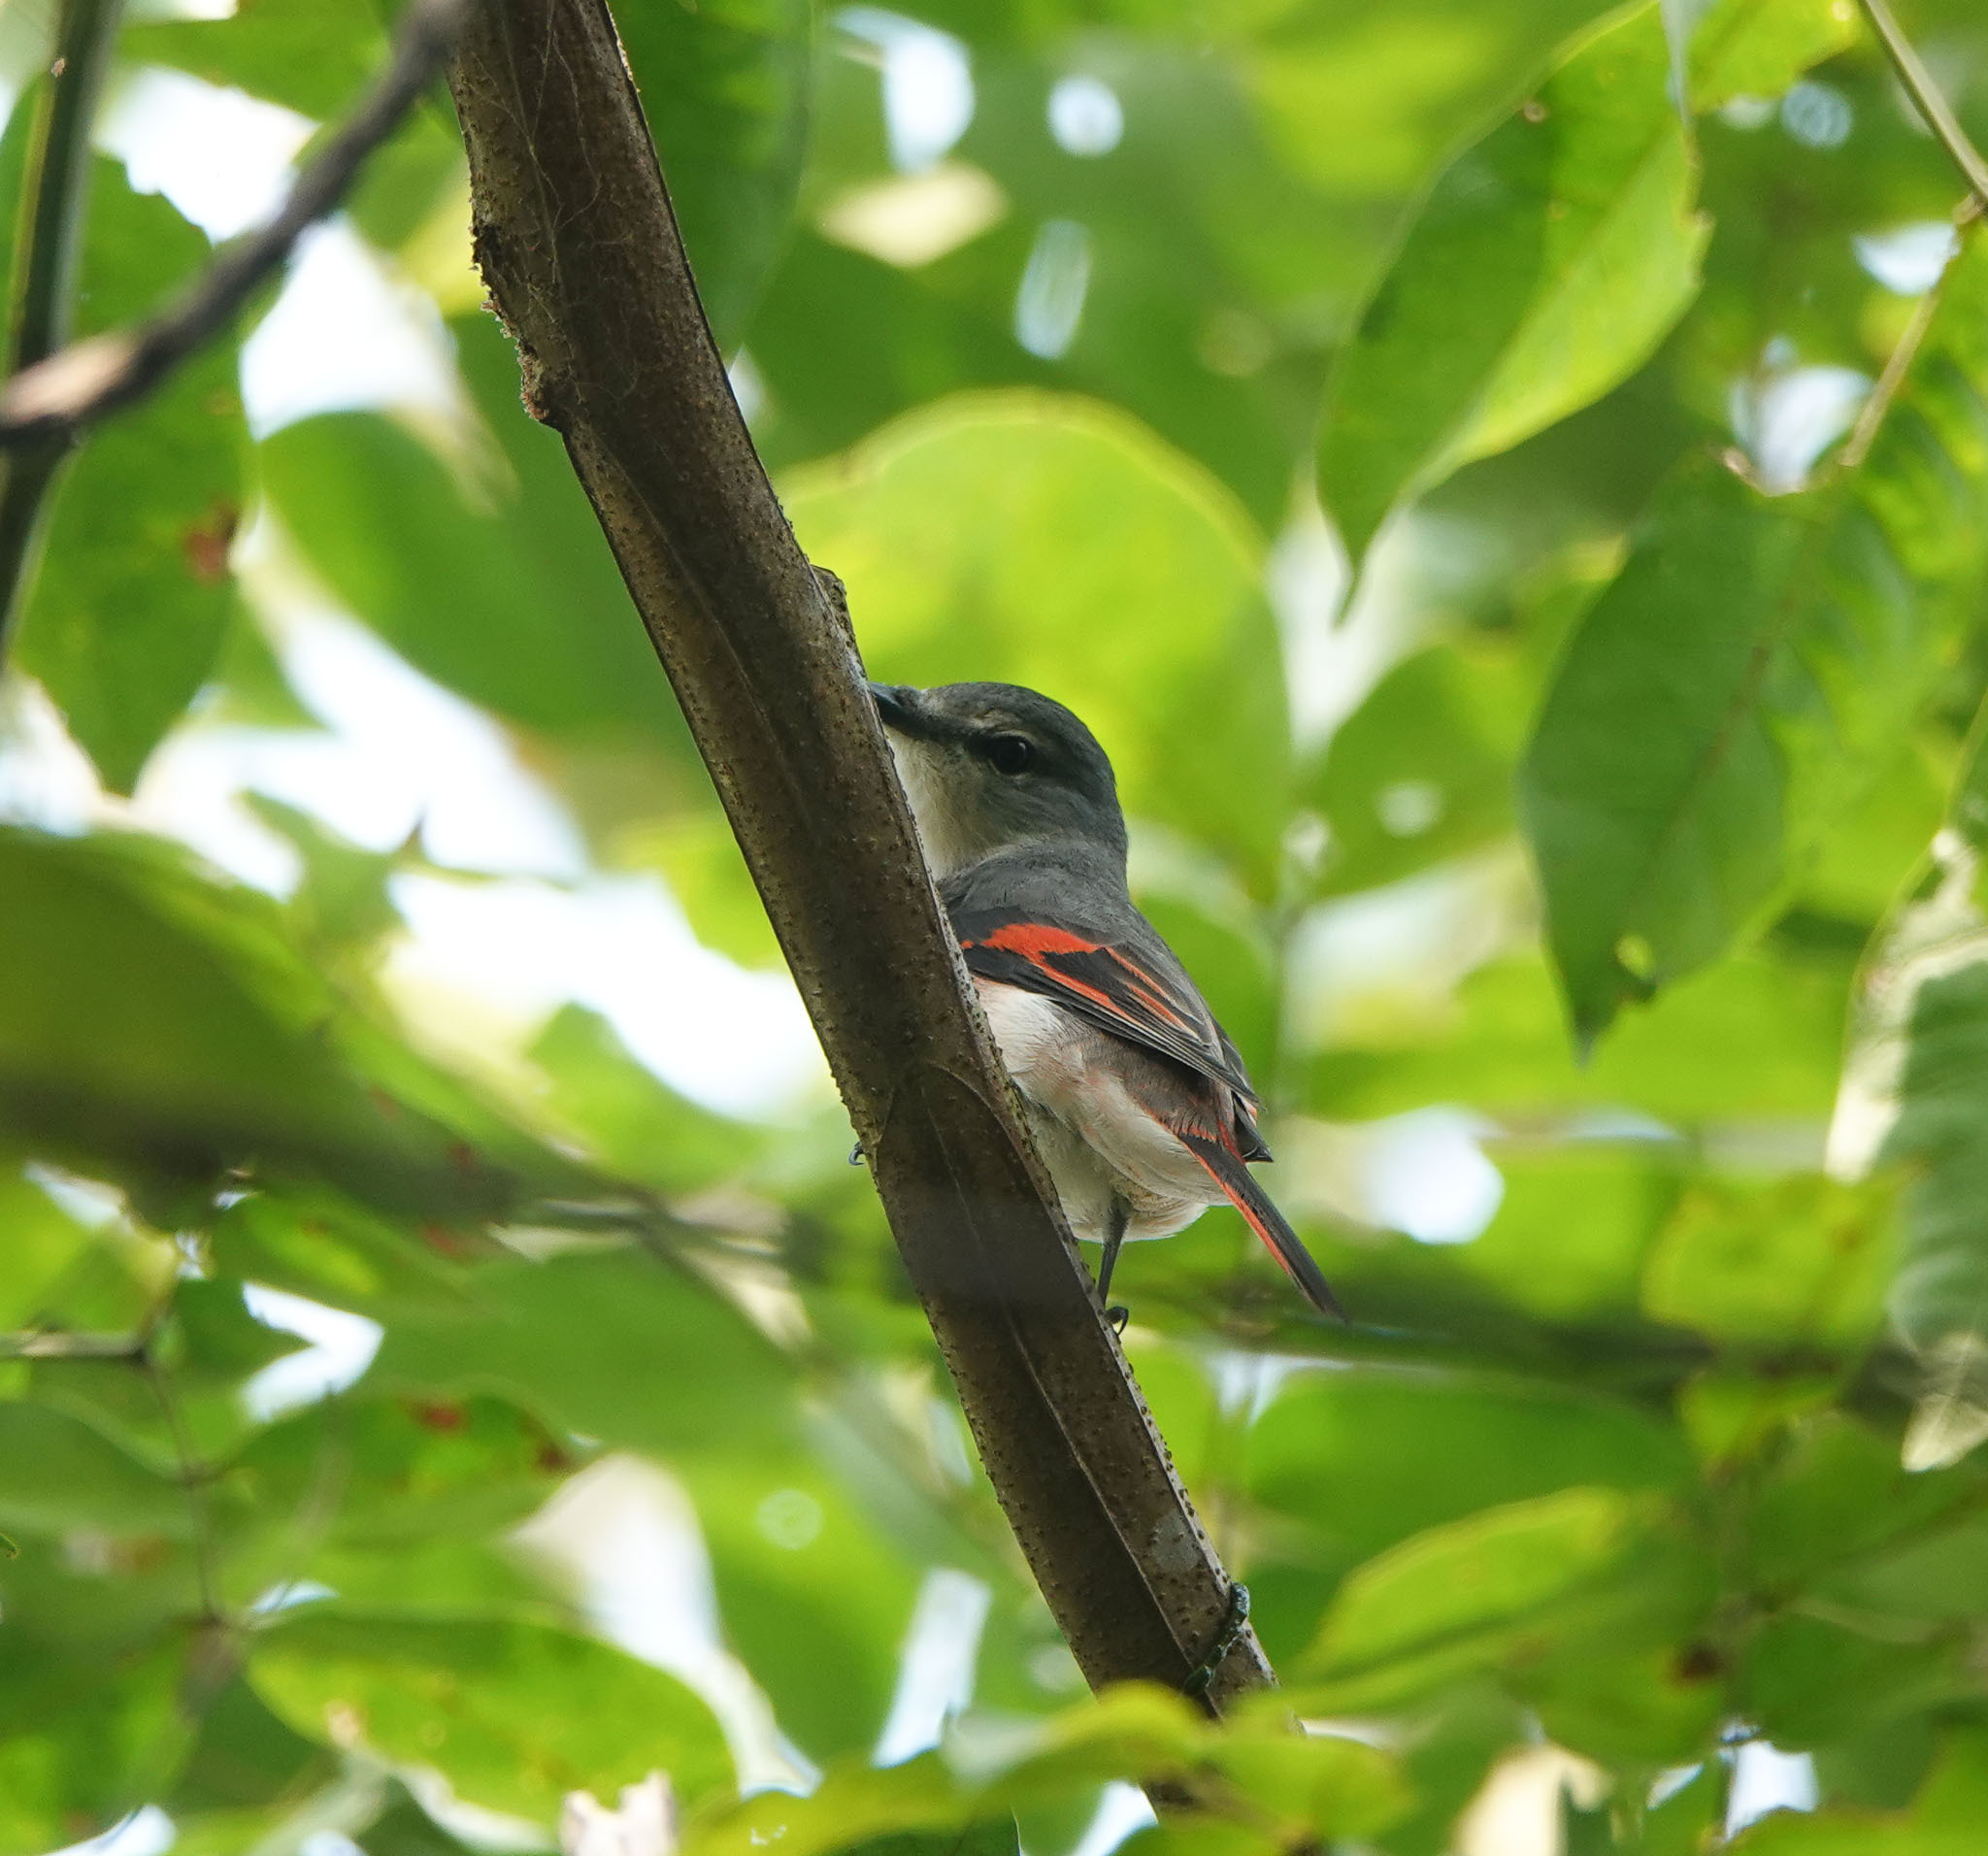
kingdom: Animalia
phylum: Chordata
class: Aves
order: Passeriformes
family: Campephagidae
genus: Pericrocotus
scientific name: Pericrocotus roseus
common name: Rosy minivet
